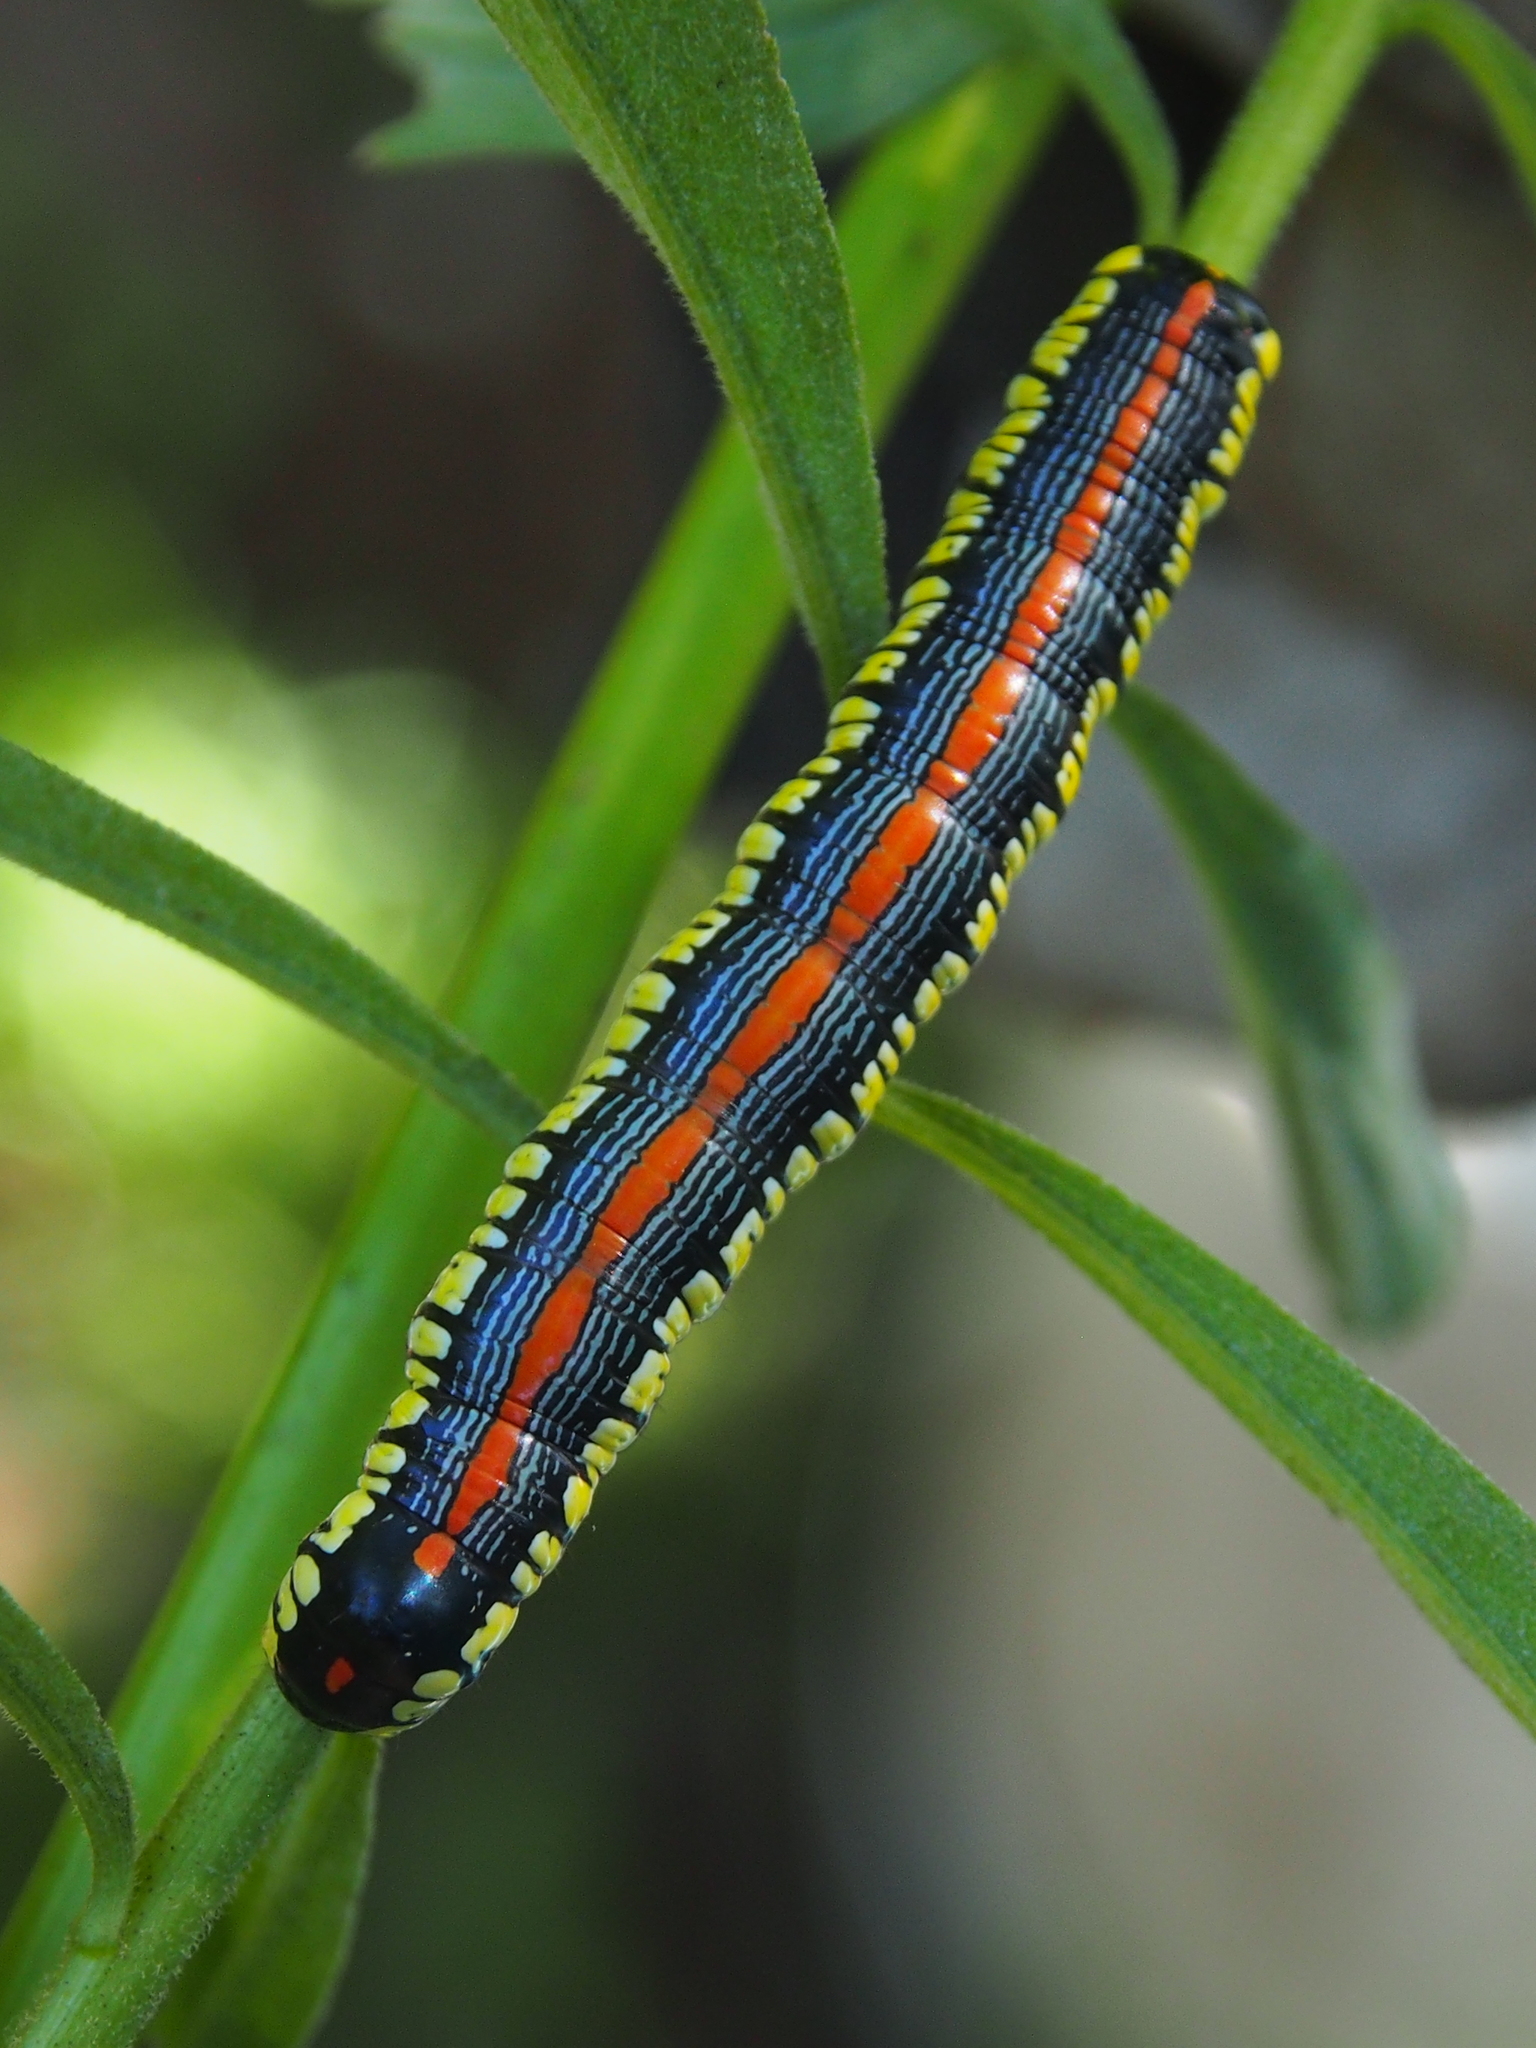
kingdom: Animalia
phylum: Arthropoda
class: Insecta
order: Lepidoptera
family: Noctuidae
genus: Cucullia
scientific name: Cucullia convexipennis
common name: Brown-hooded owlet
